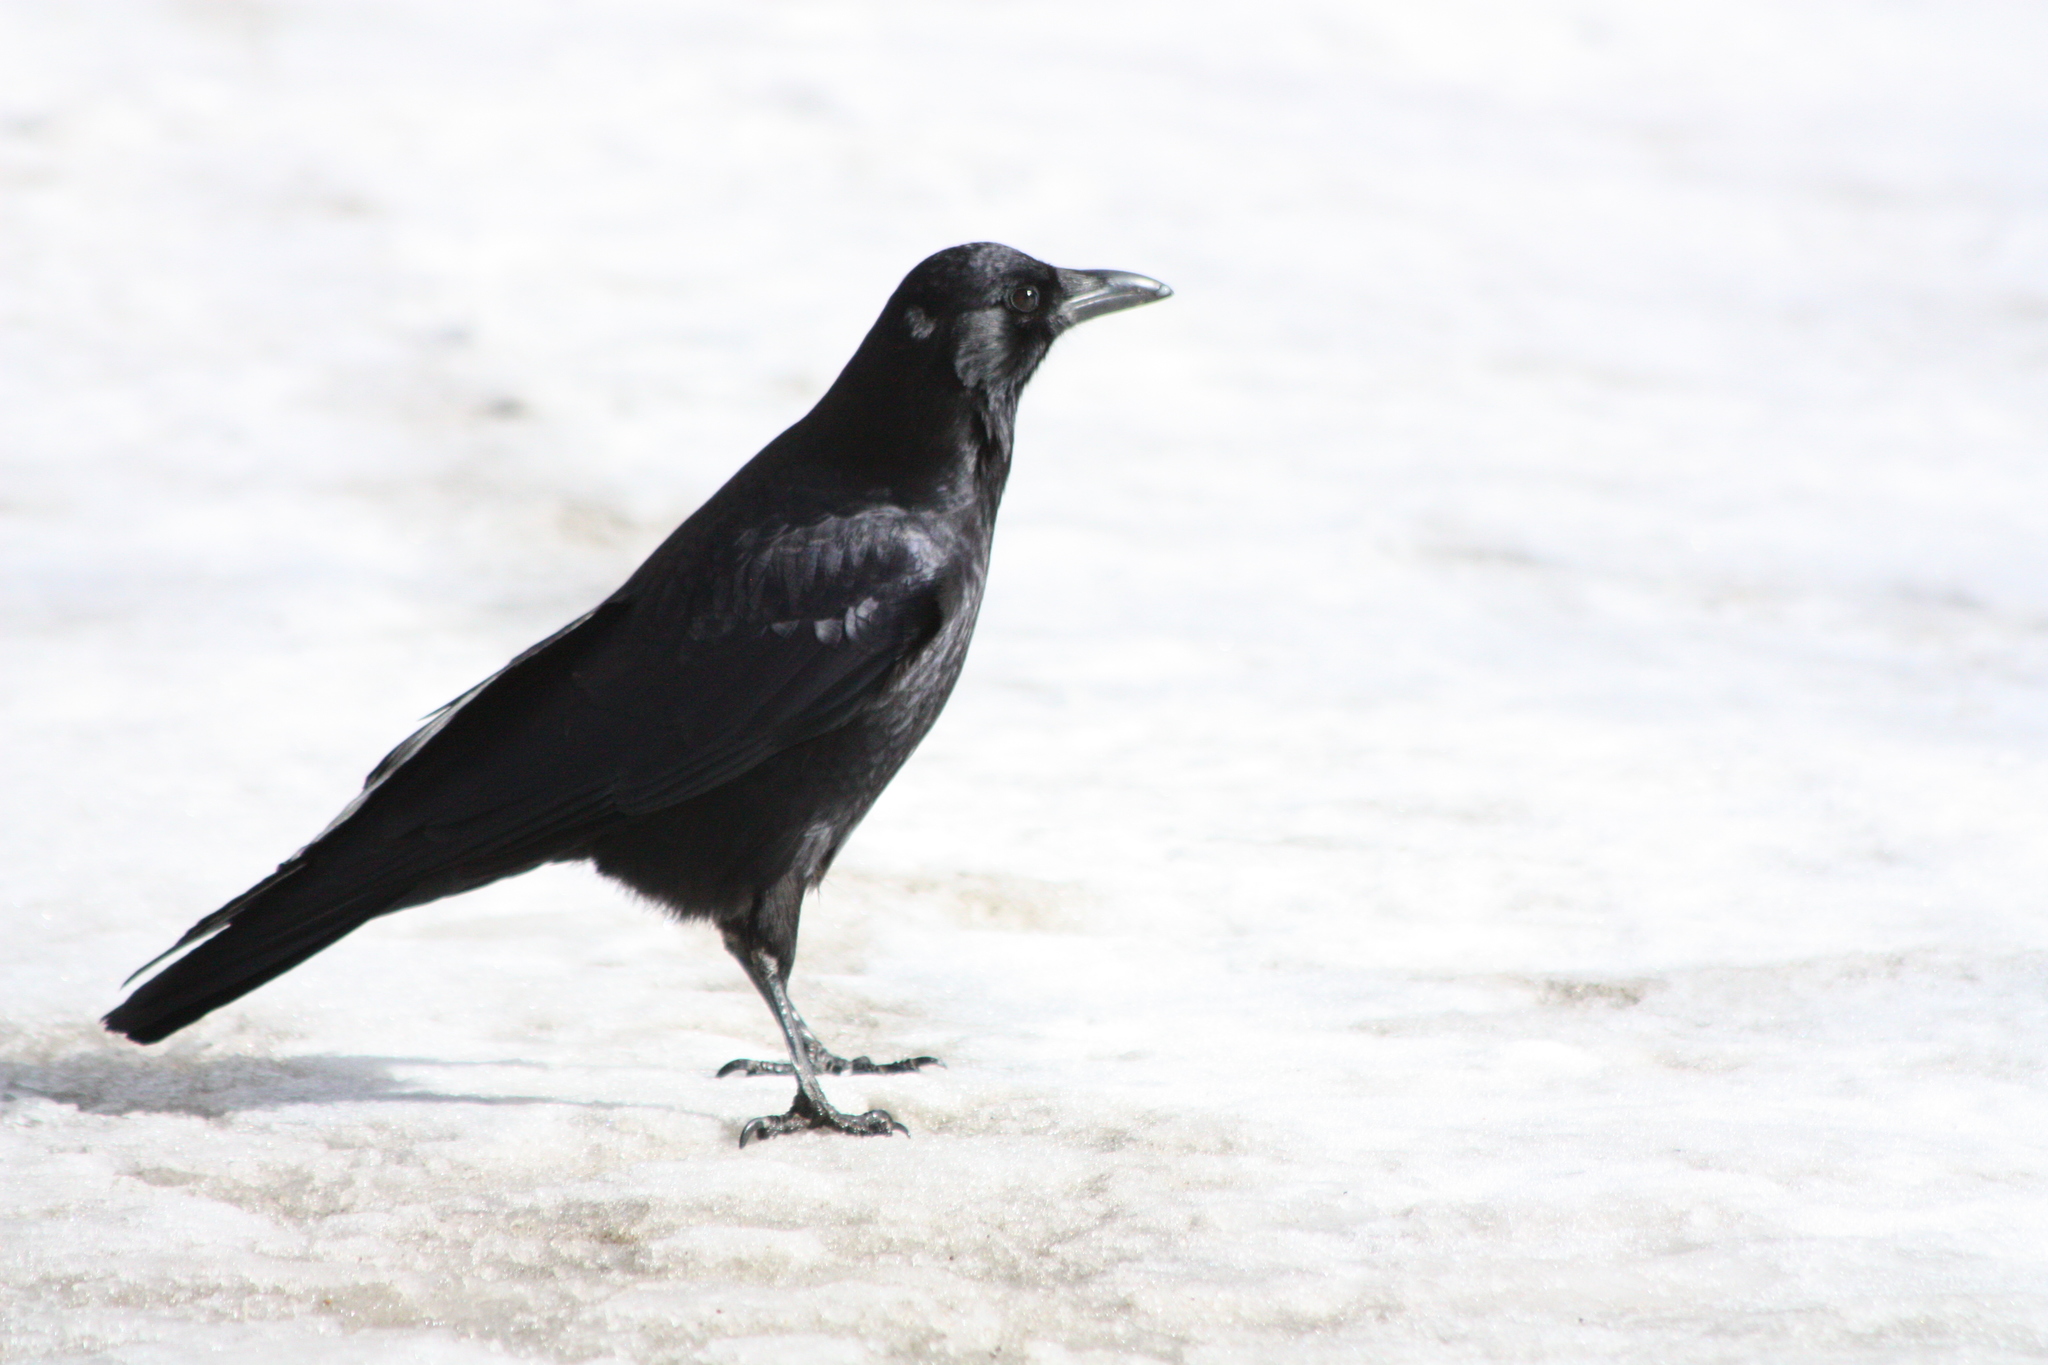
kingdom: Animalia
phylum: Chordata
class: Aves
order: Passeriformes
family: Corvidae
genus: Corvus
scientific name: Corvus brachyrhynchos
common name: American crow
